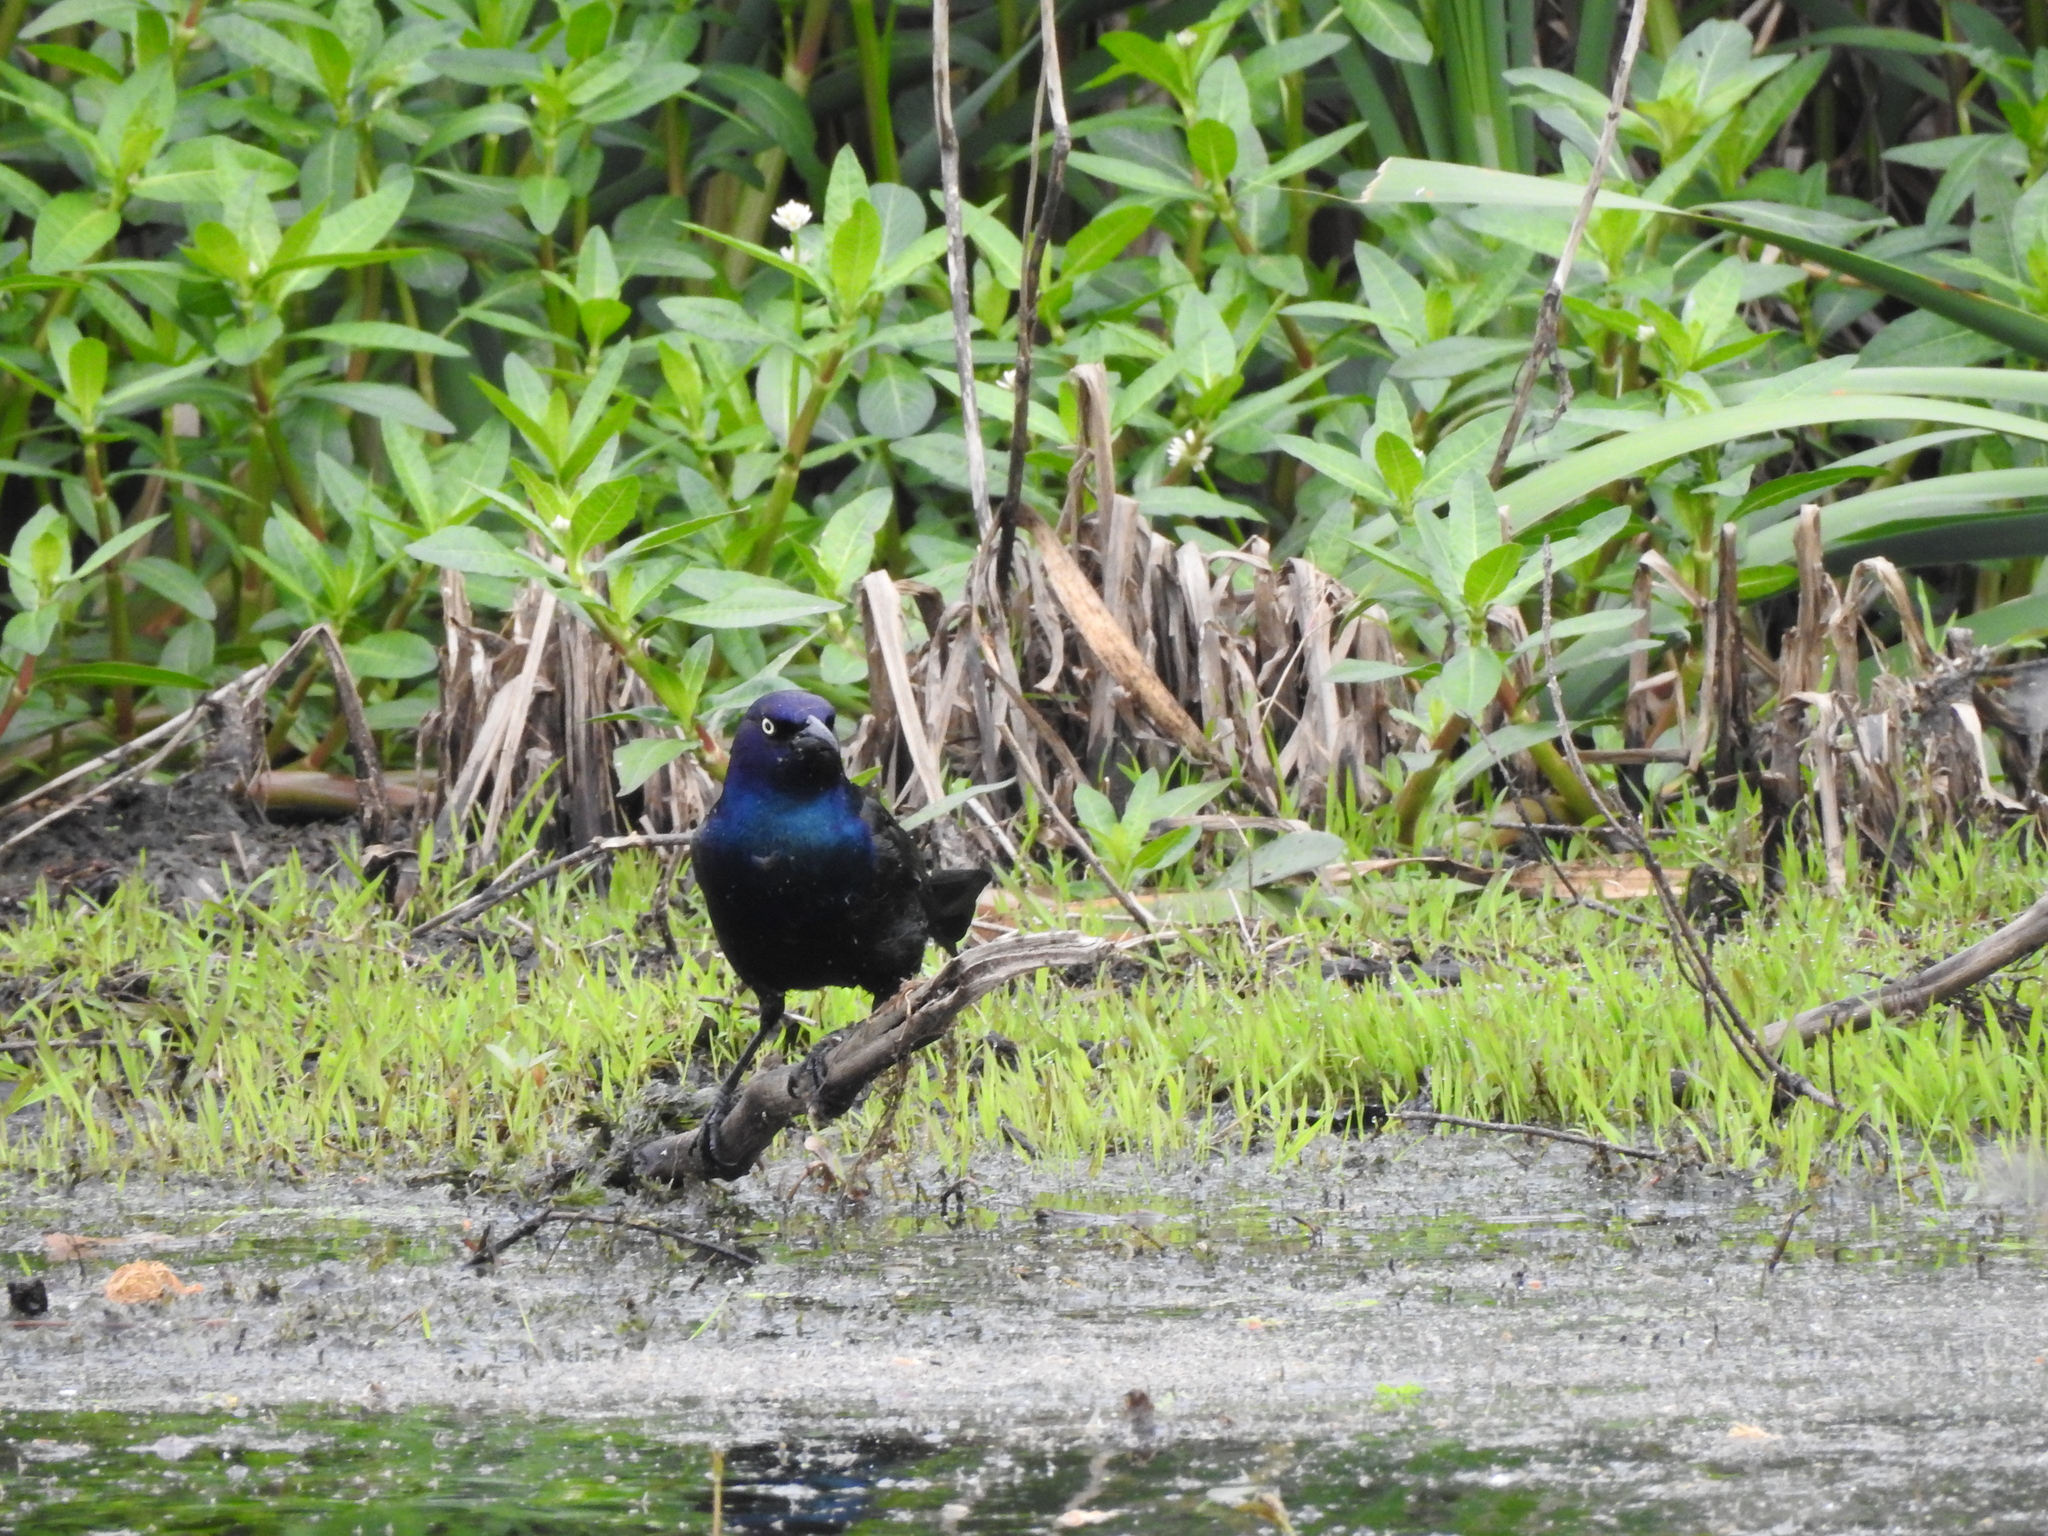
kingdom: Animalia
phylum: Chordata
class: Aves
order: Passeriformes
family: Icteridae
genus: Quiscalus
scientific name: Quiscalus quiscula
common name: Common grackle
